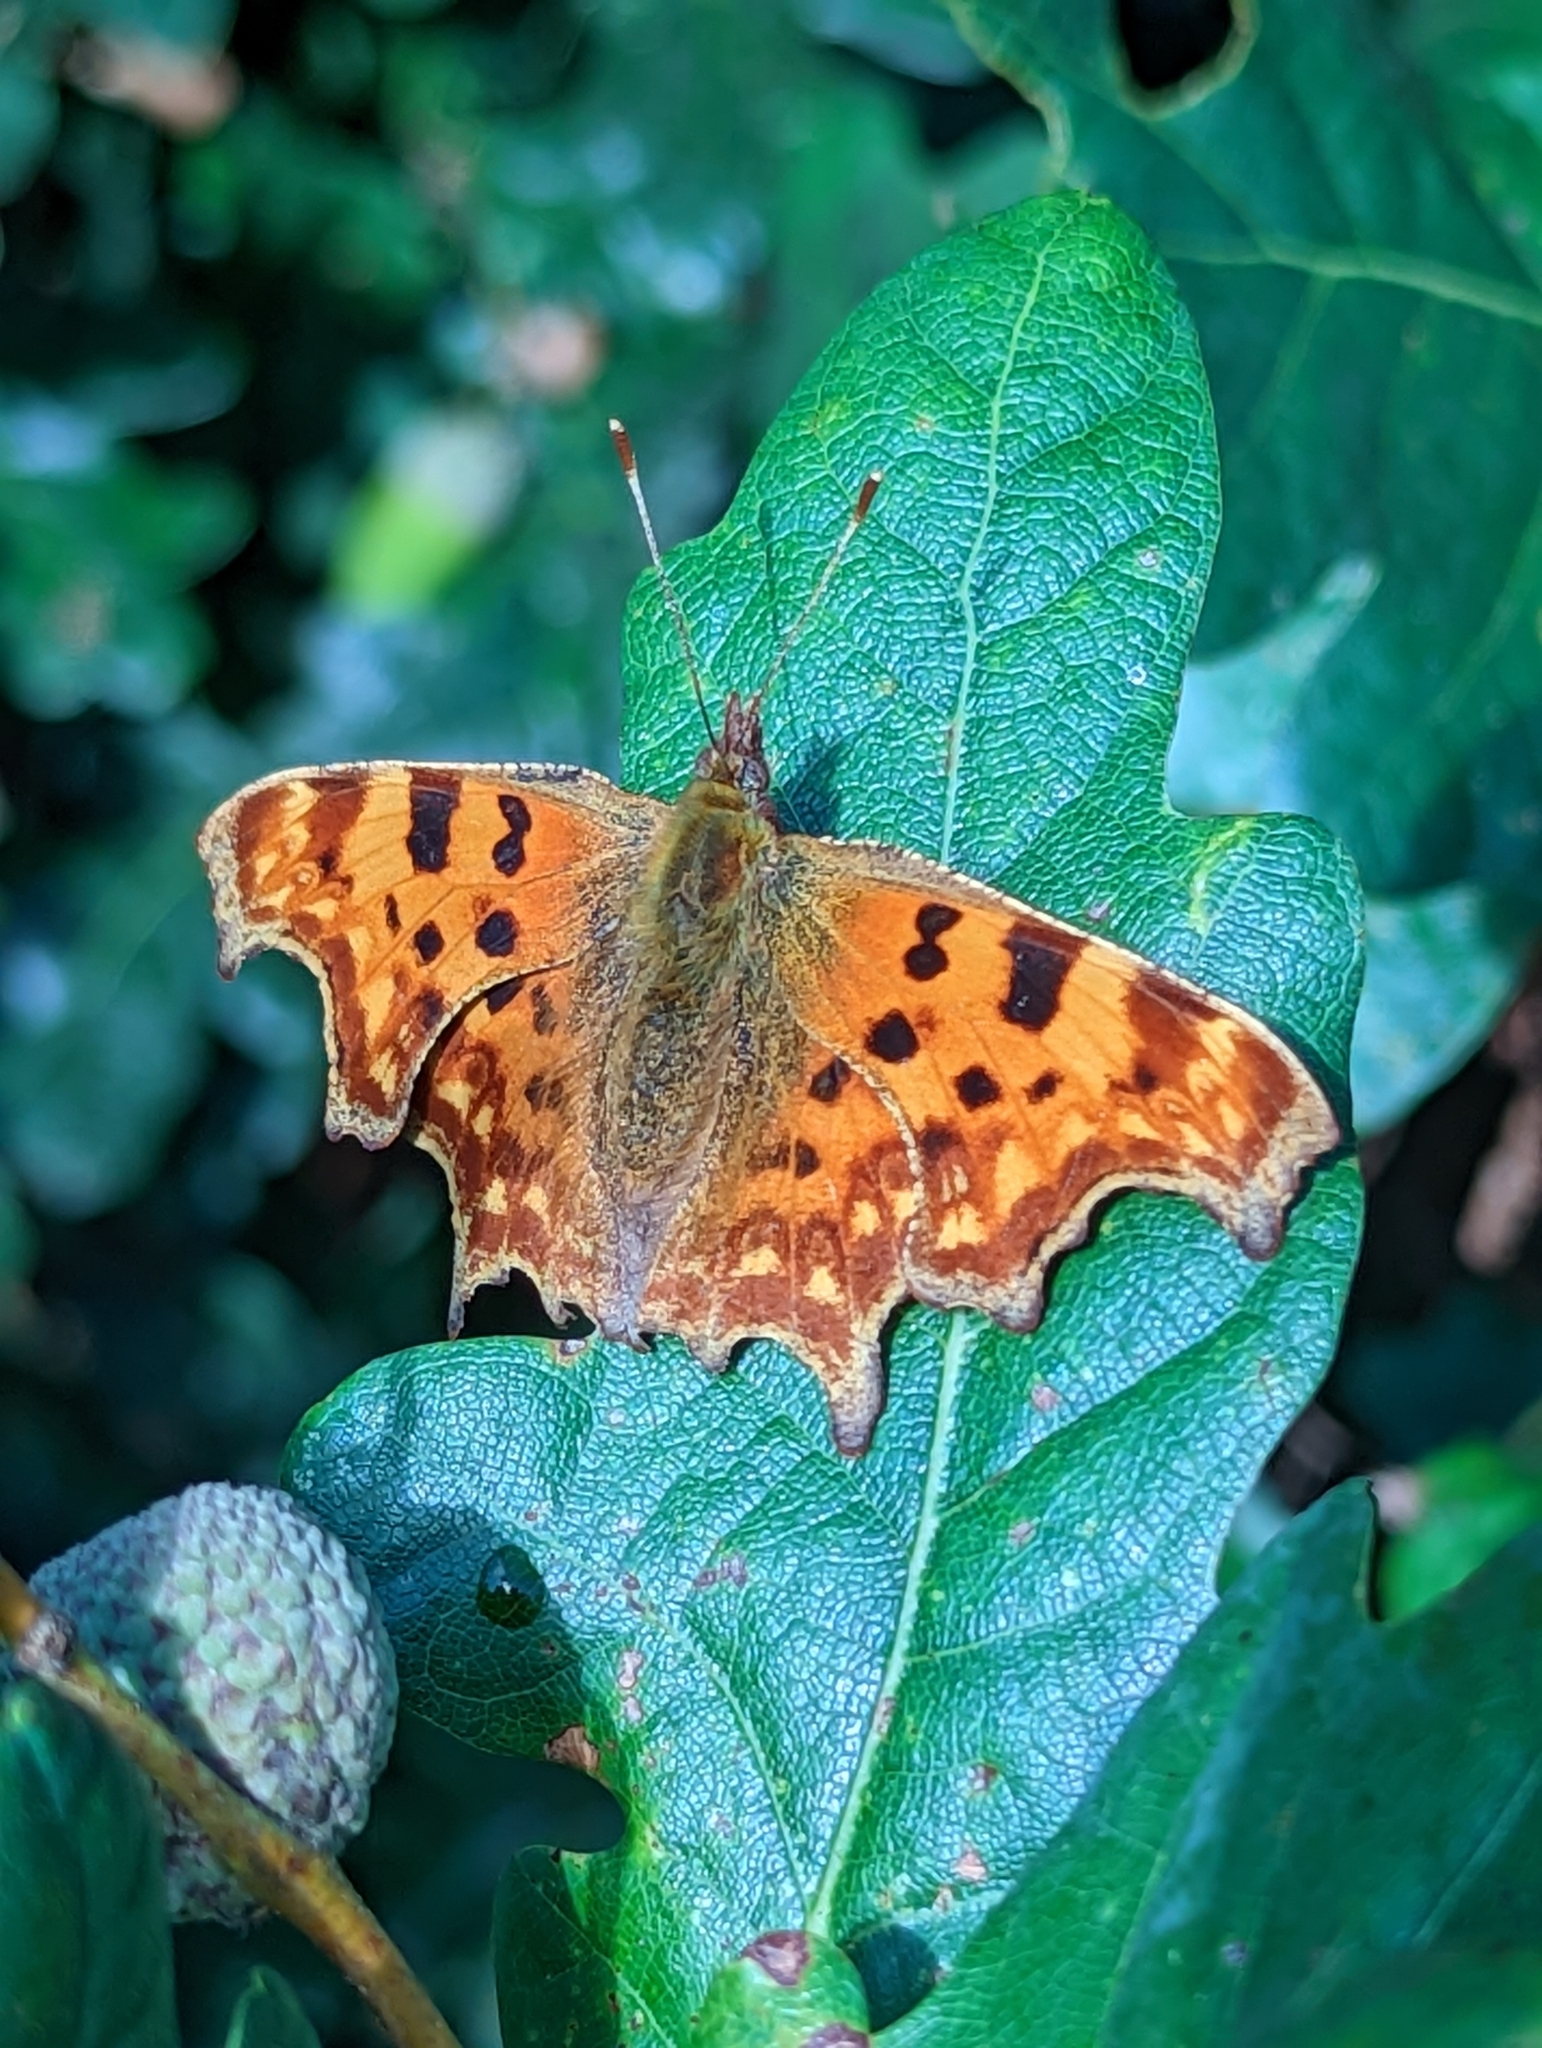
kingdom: Animalia
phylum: Arthropoda
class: Insecta
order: Lepidoptera
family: Nymphalidae
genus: Polygonia
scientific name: Polygonia c-album
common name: Comma
